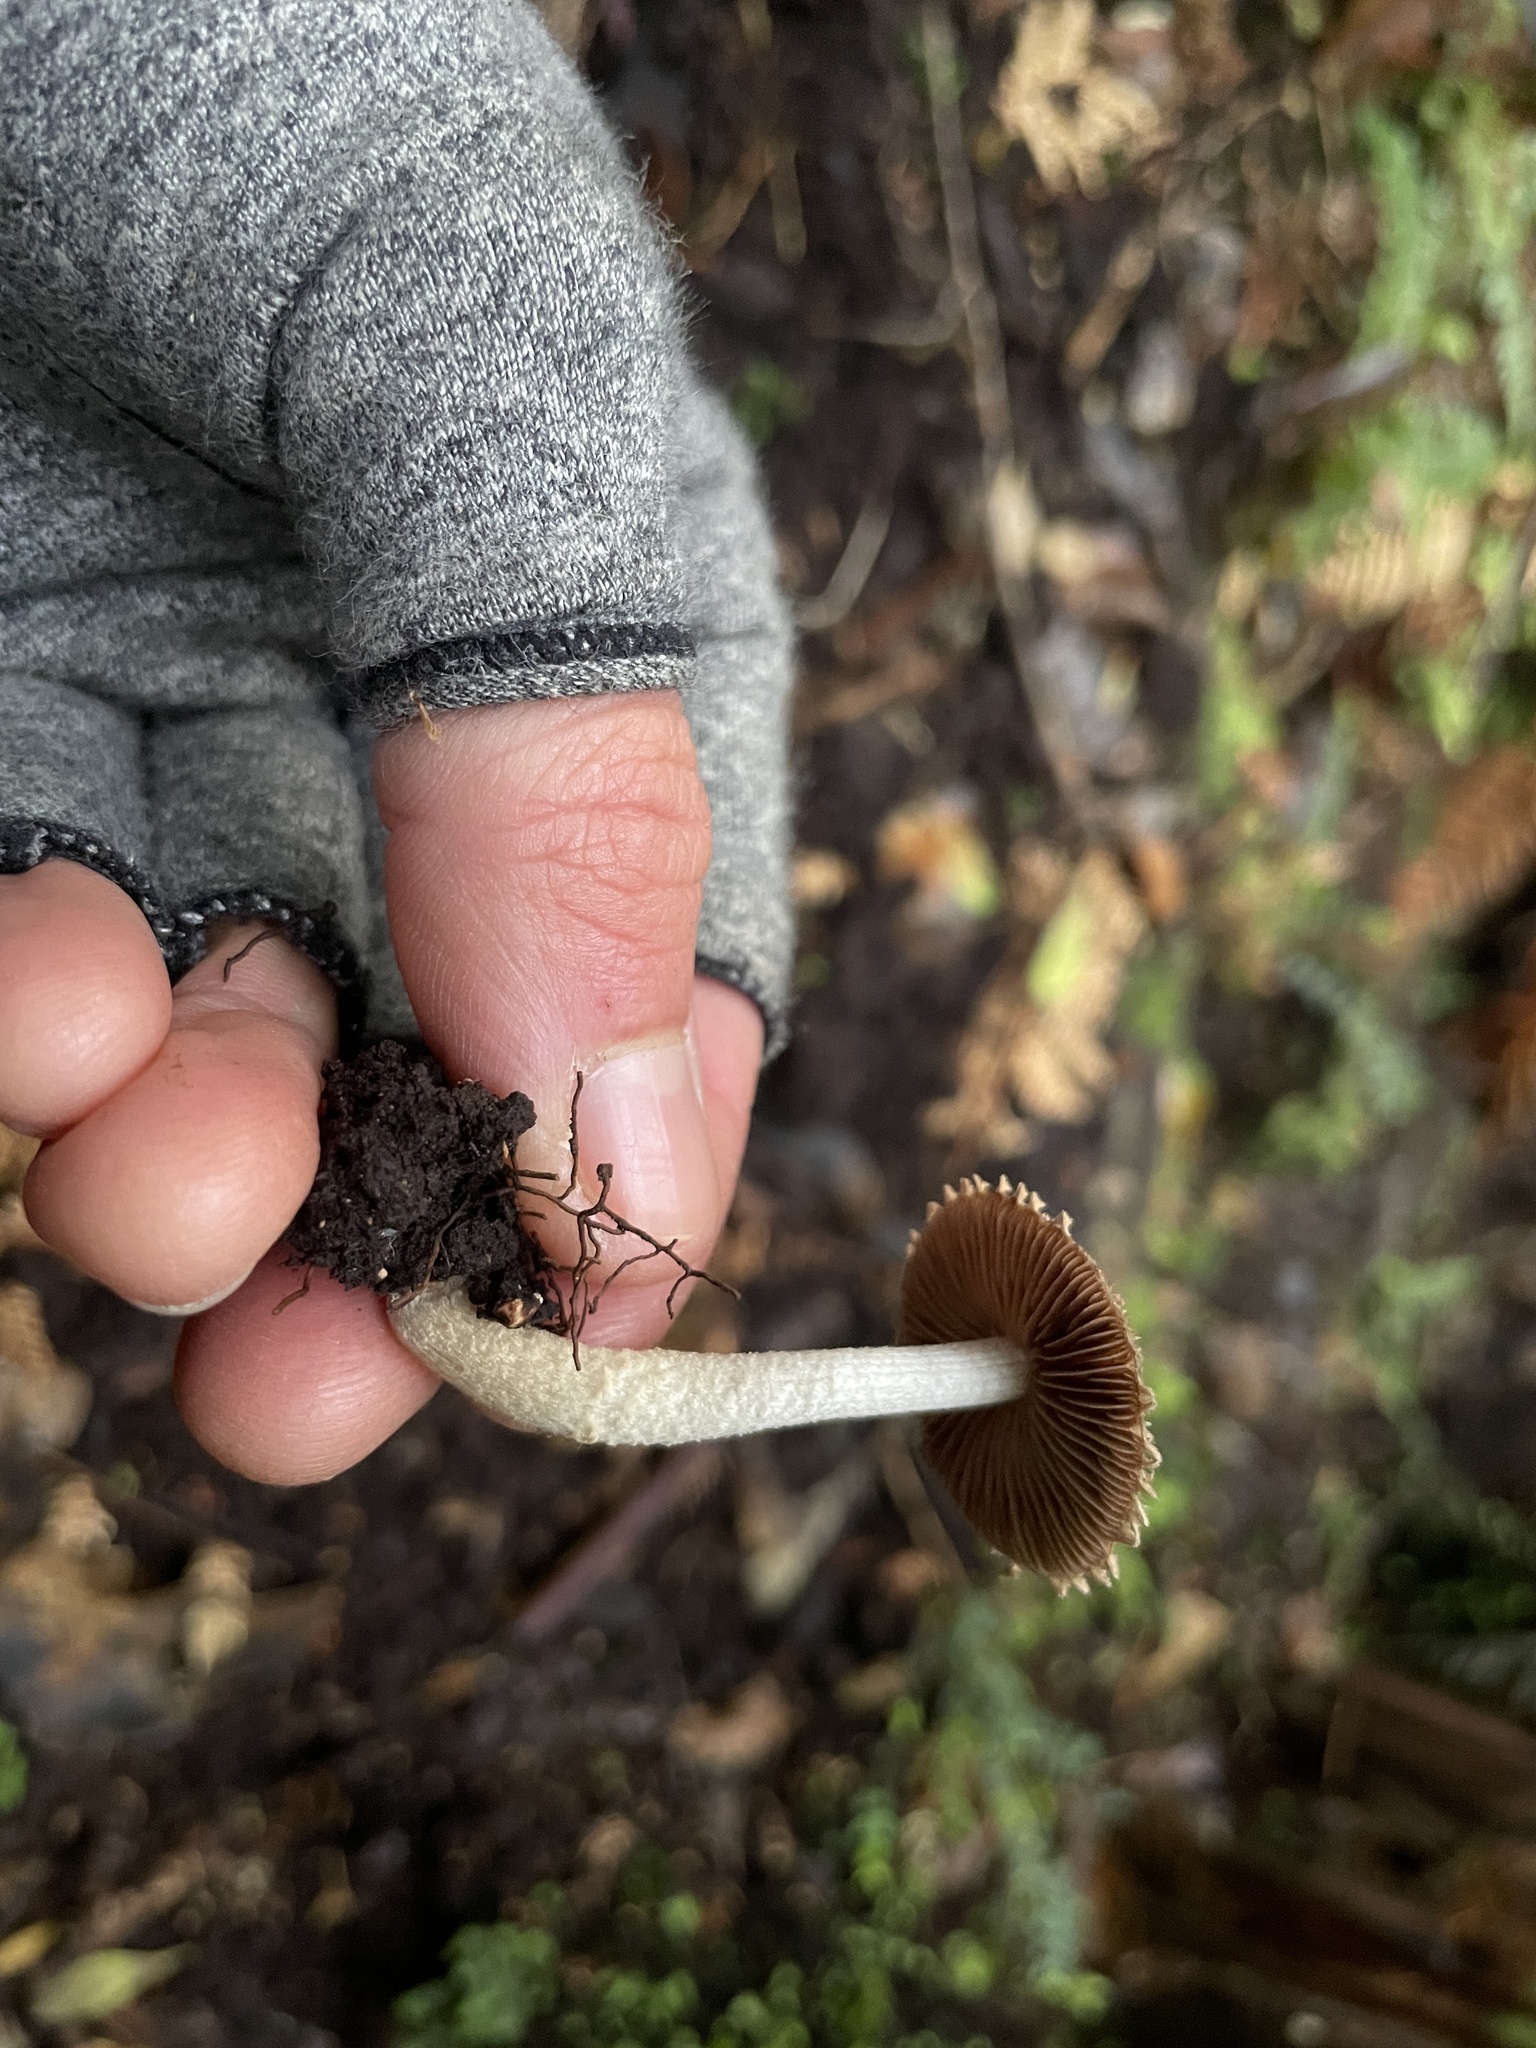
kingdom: Fungi
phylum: Basidiomycota
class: Agaricomycetes
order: Agaricales
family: Psathyrellaceae
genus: Psathyrella
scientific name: Psathyrella echinata
